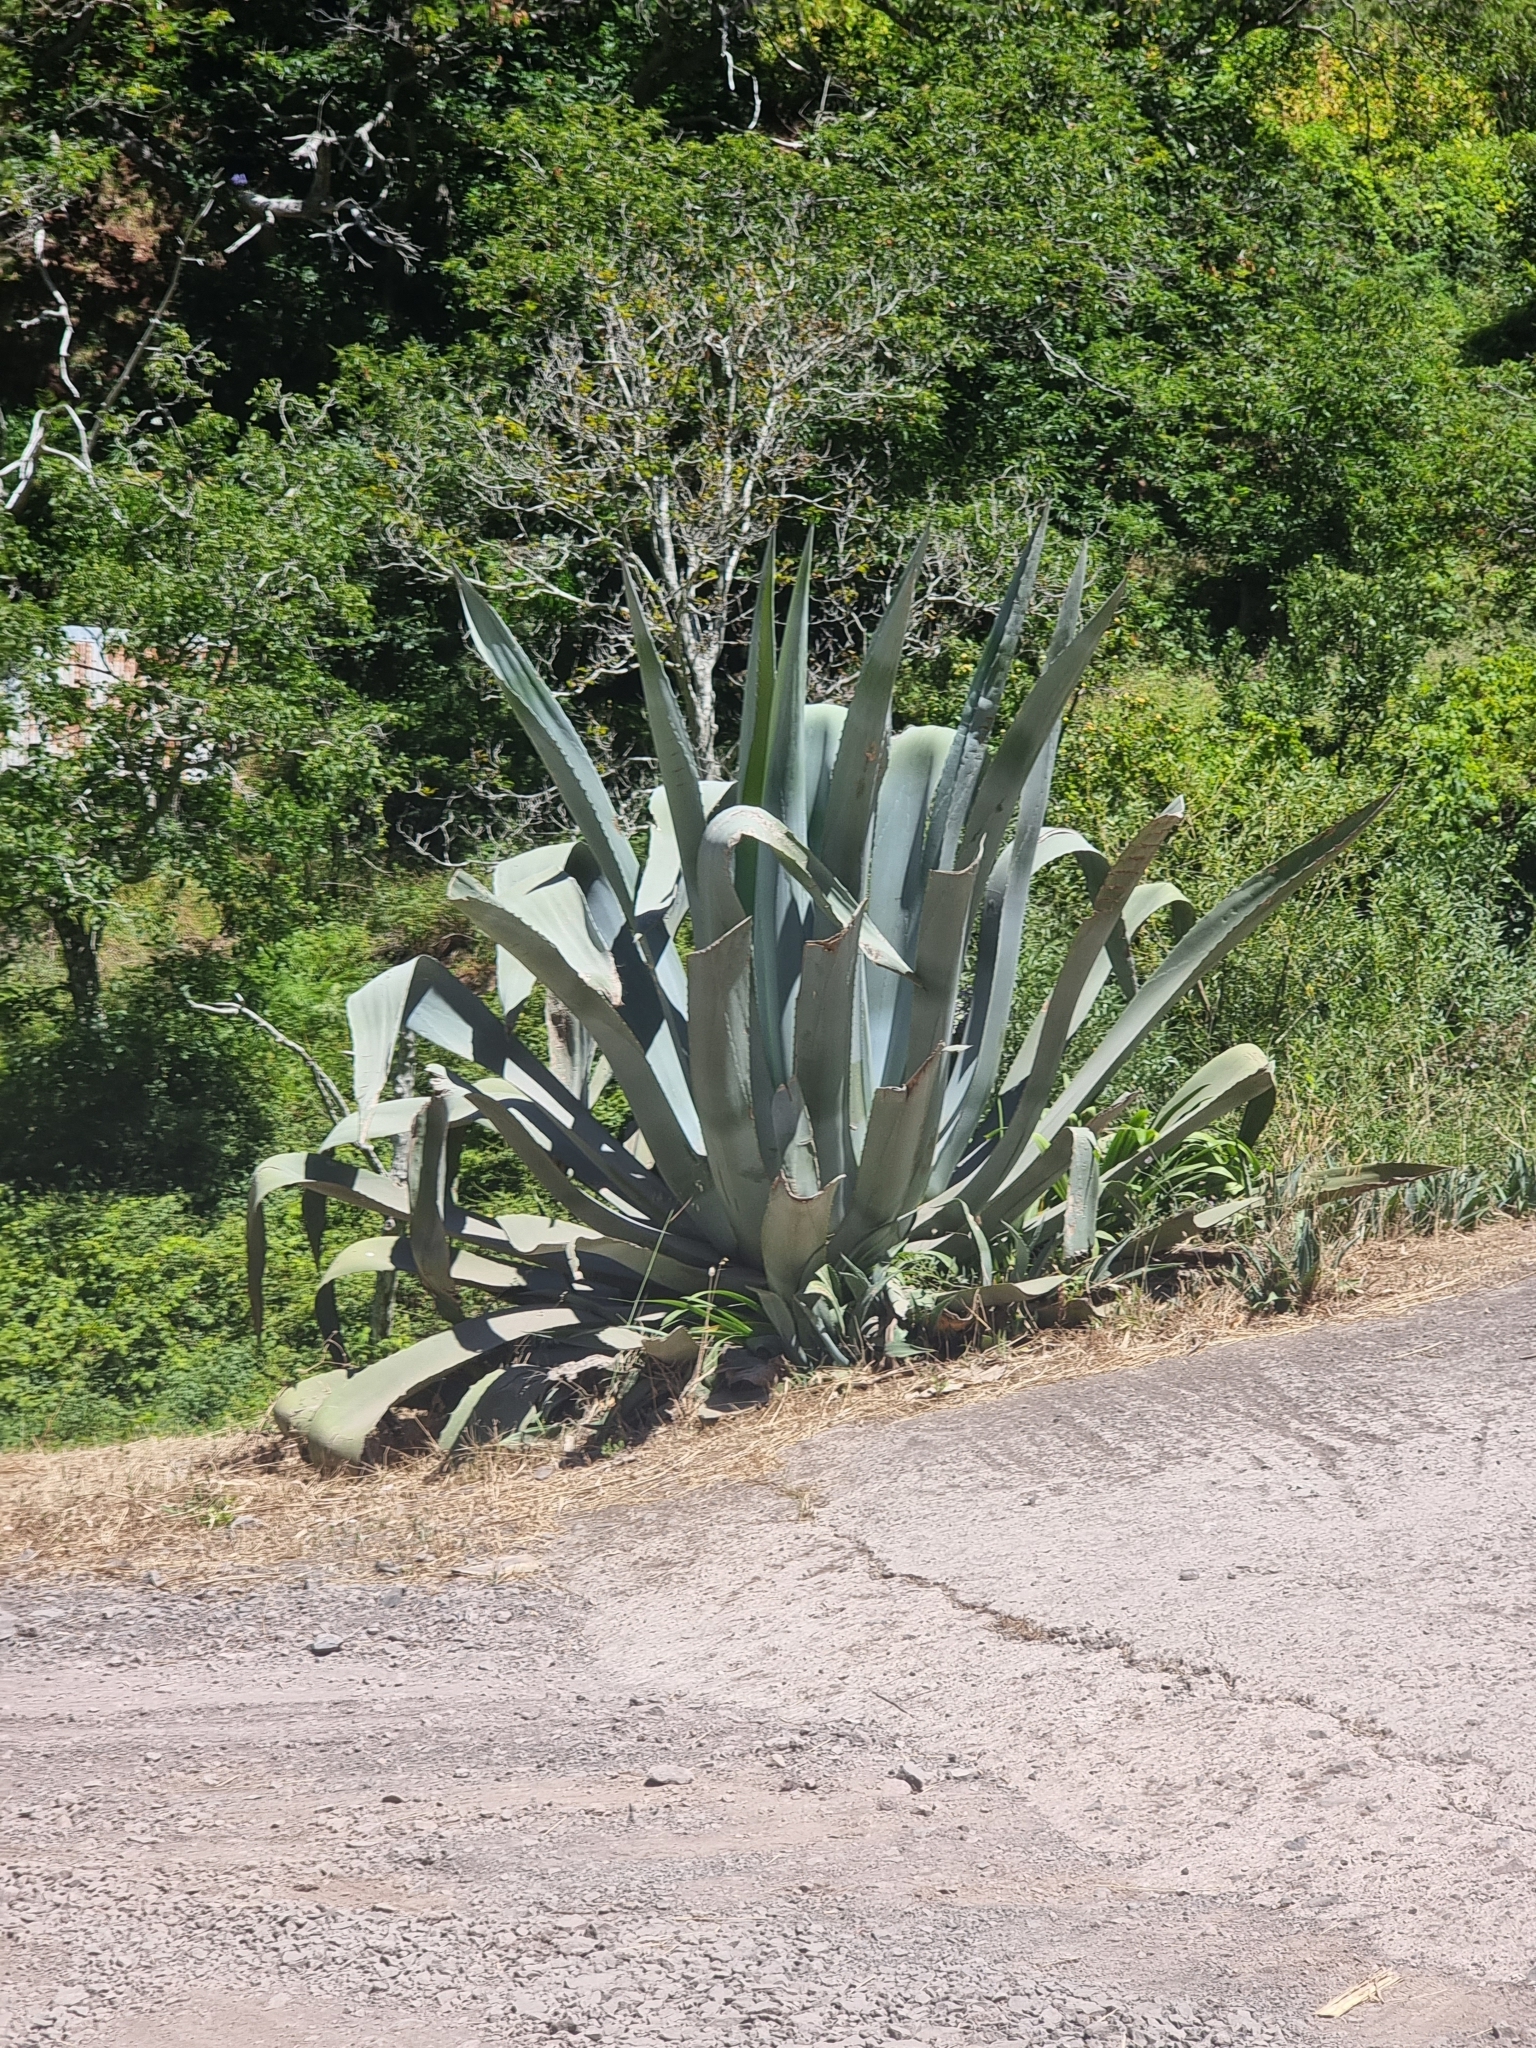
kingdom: Plantae
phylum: Tracheophyta
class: Liliopsida
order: Asparagales
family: Asparagaceae
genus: Agave
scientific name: Agave americana
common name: Centuryplant
